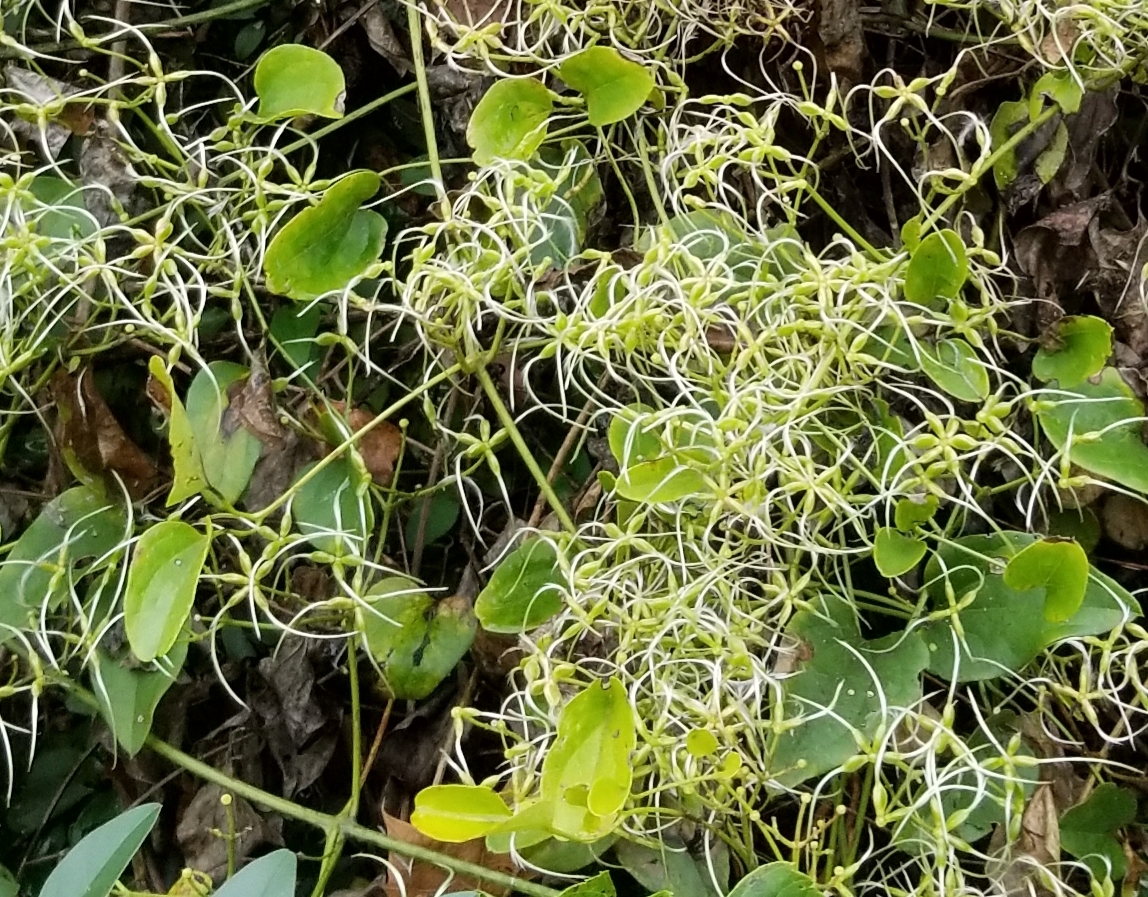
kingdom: Plantae
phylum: Tracheophyta
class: Magnoliopsida
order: Ranunculales
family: Ranunculaceae
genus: Clematis
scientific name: Clematis vitalba
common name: Evergreen clematis
